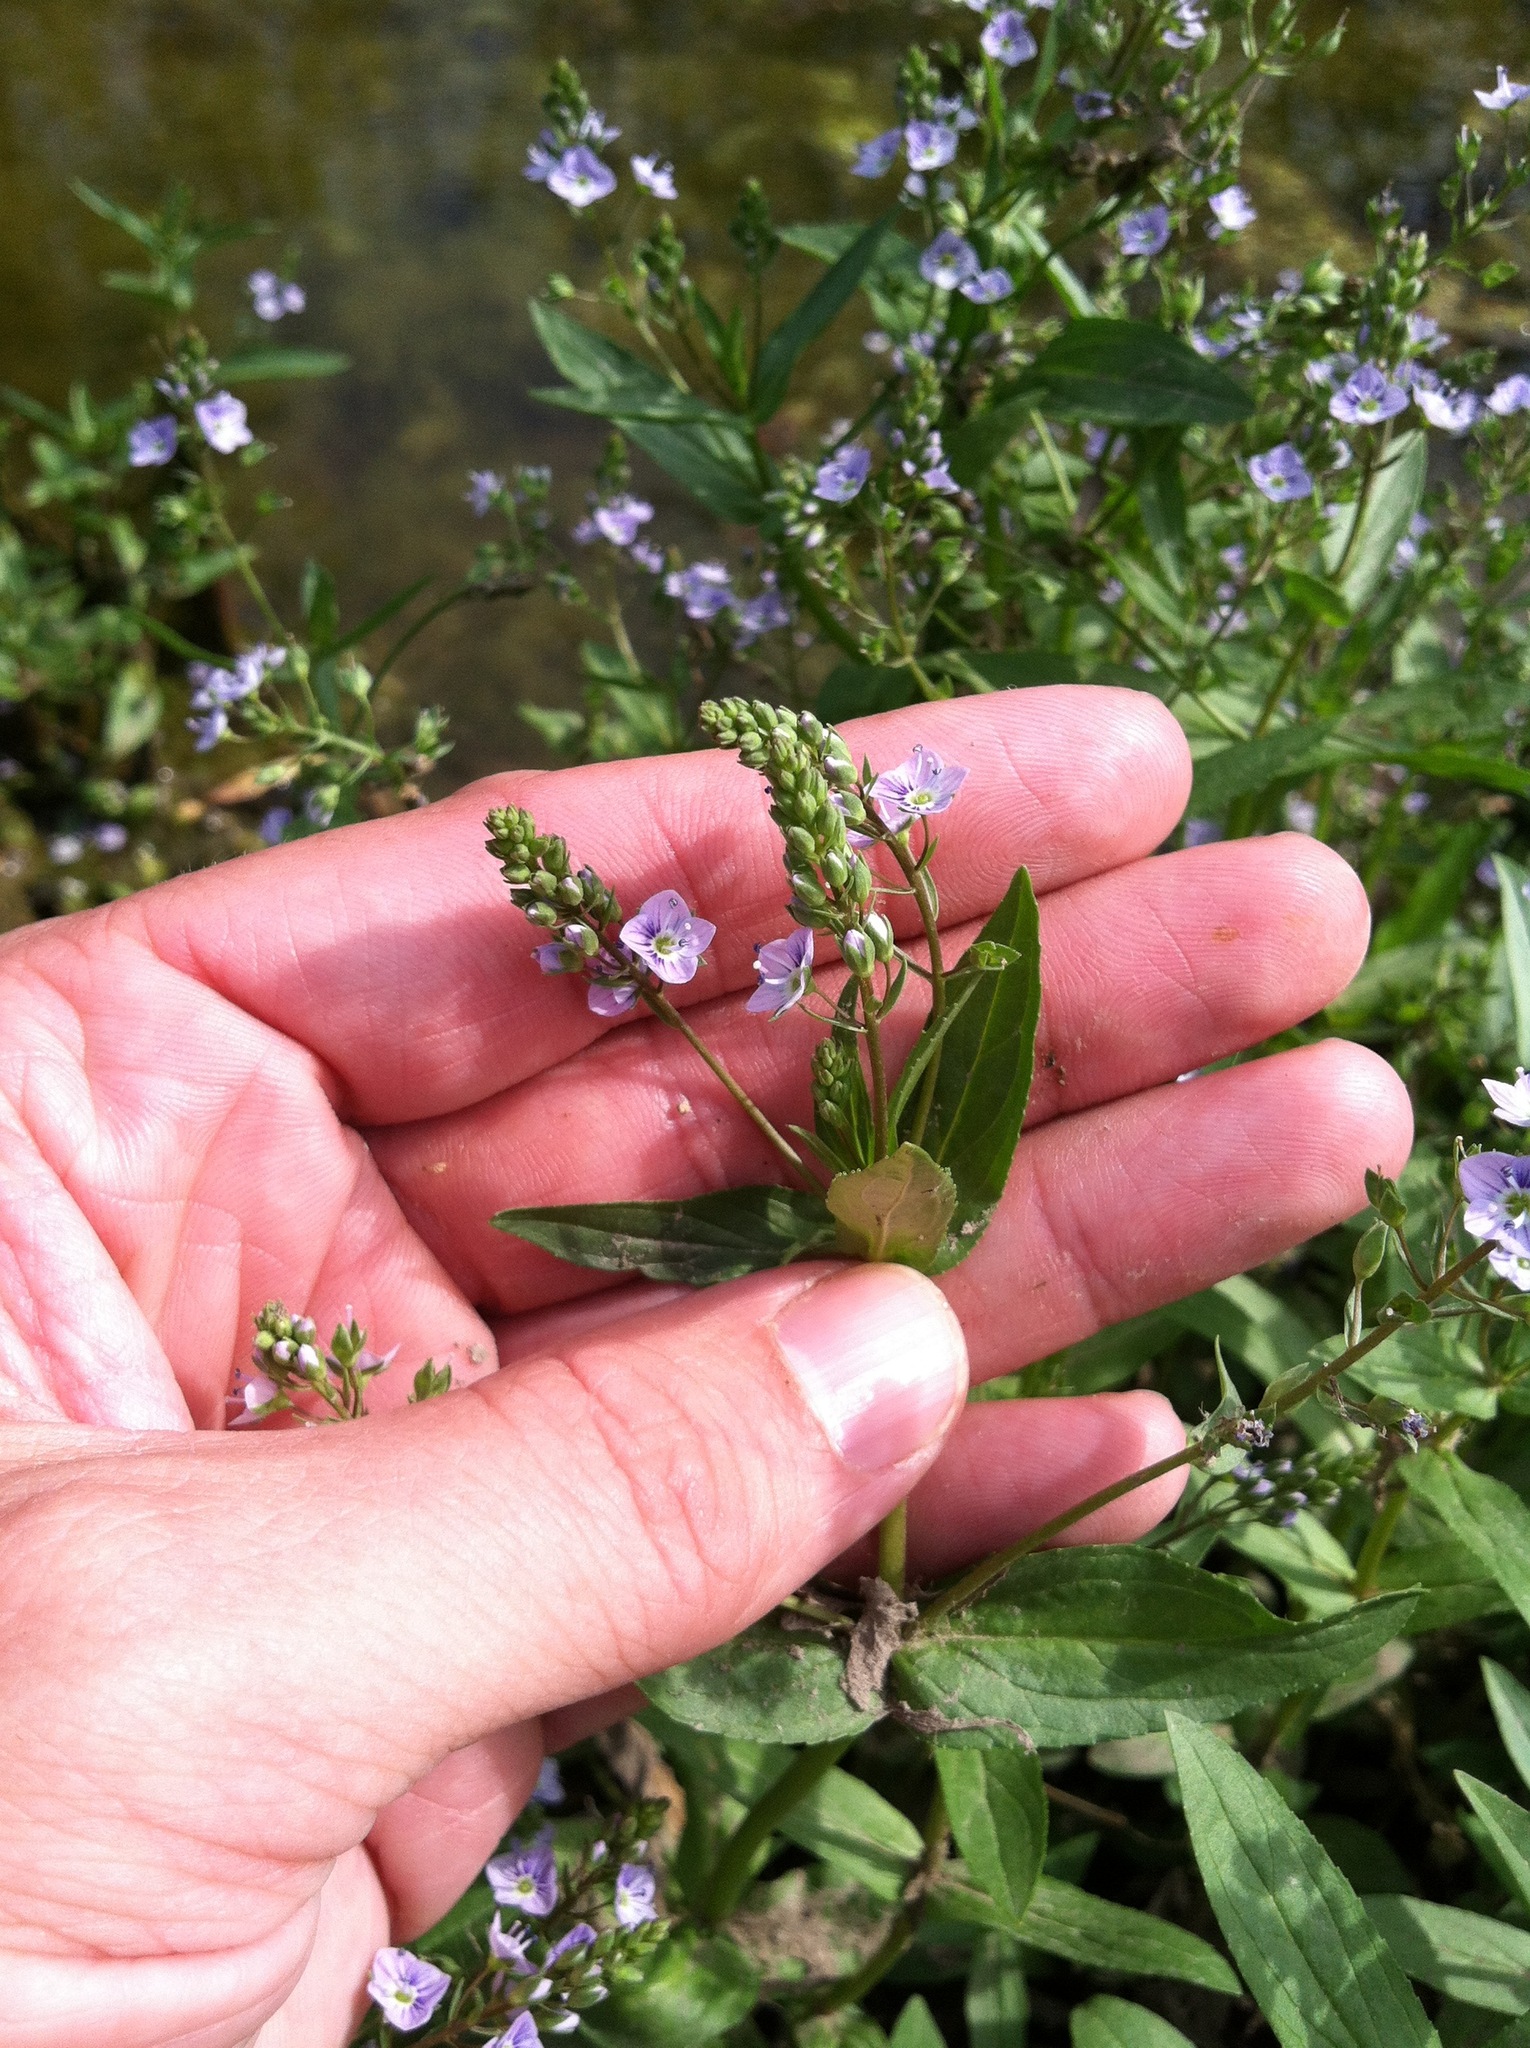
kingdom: Plantae
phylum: Tracheophyta
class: Magnoliopsida
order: Lamiales
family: Plantaginaceae
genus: Veronica
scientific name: Veronica anagallis-aquatica
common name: Water speedwell
